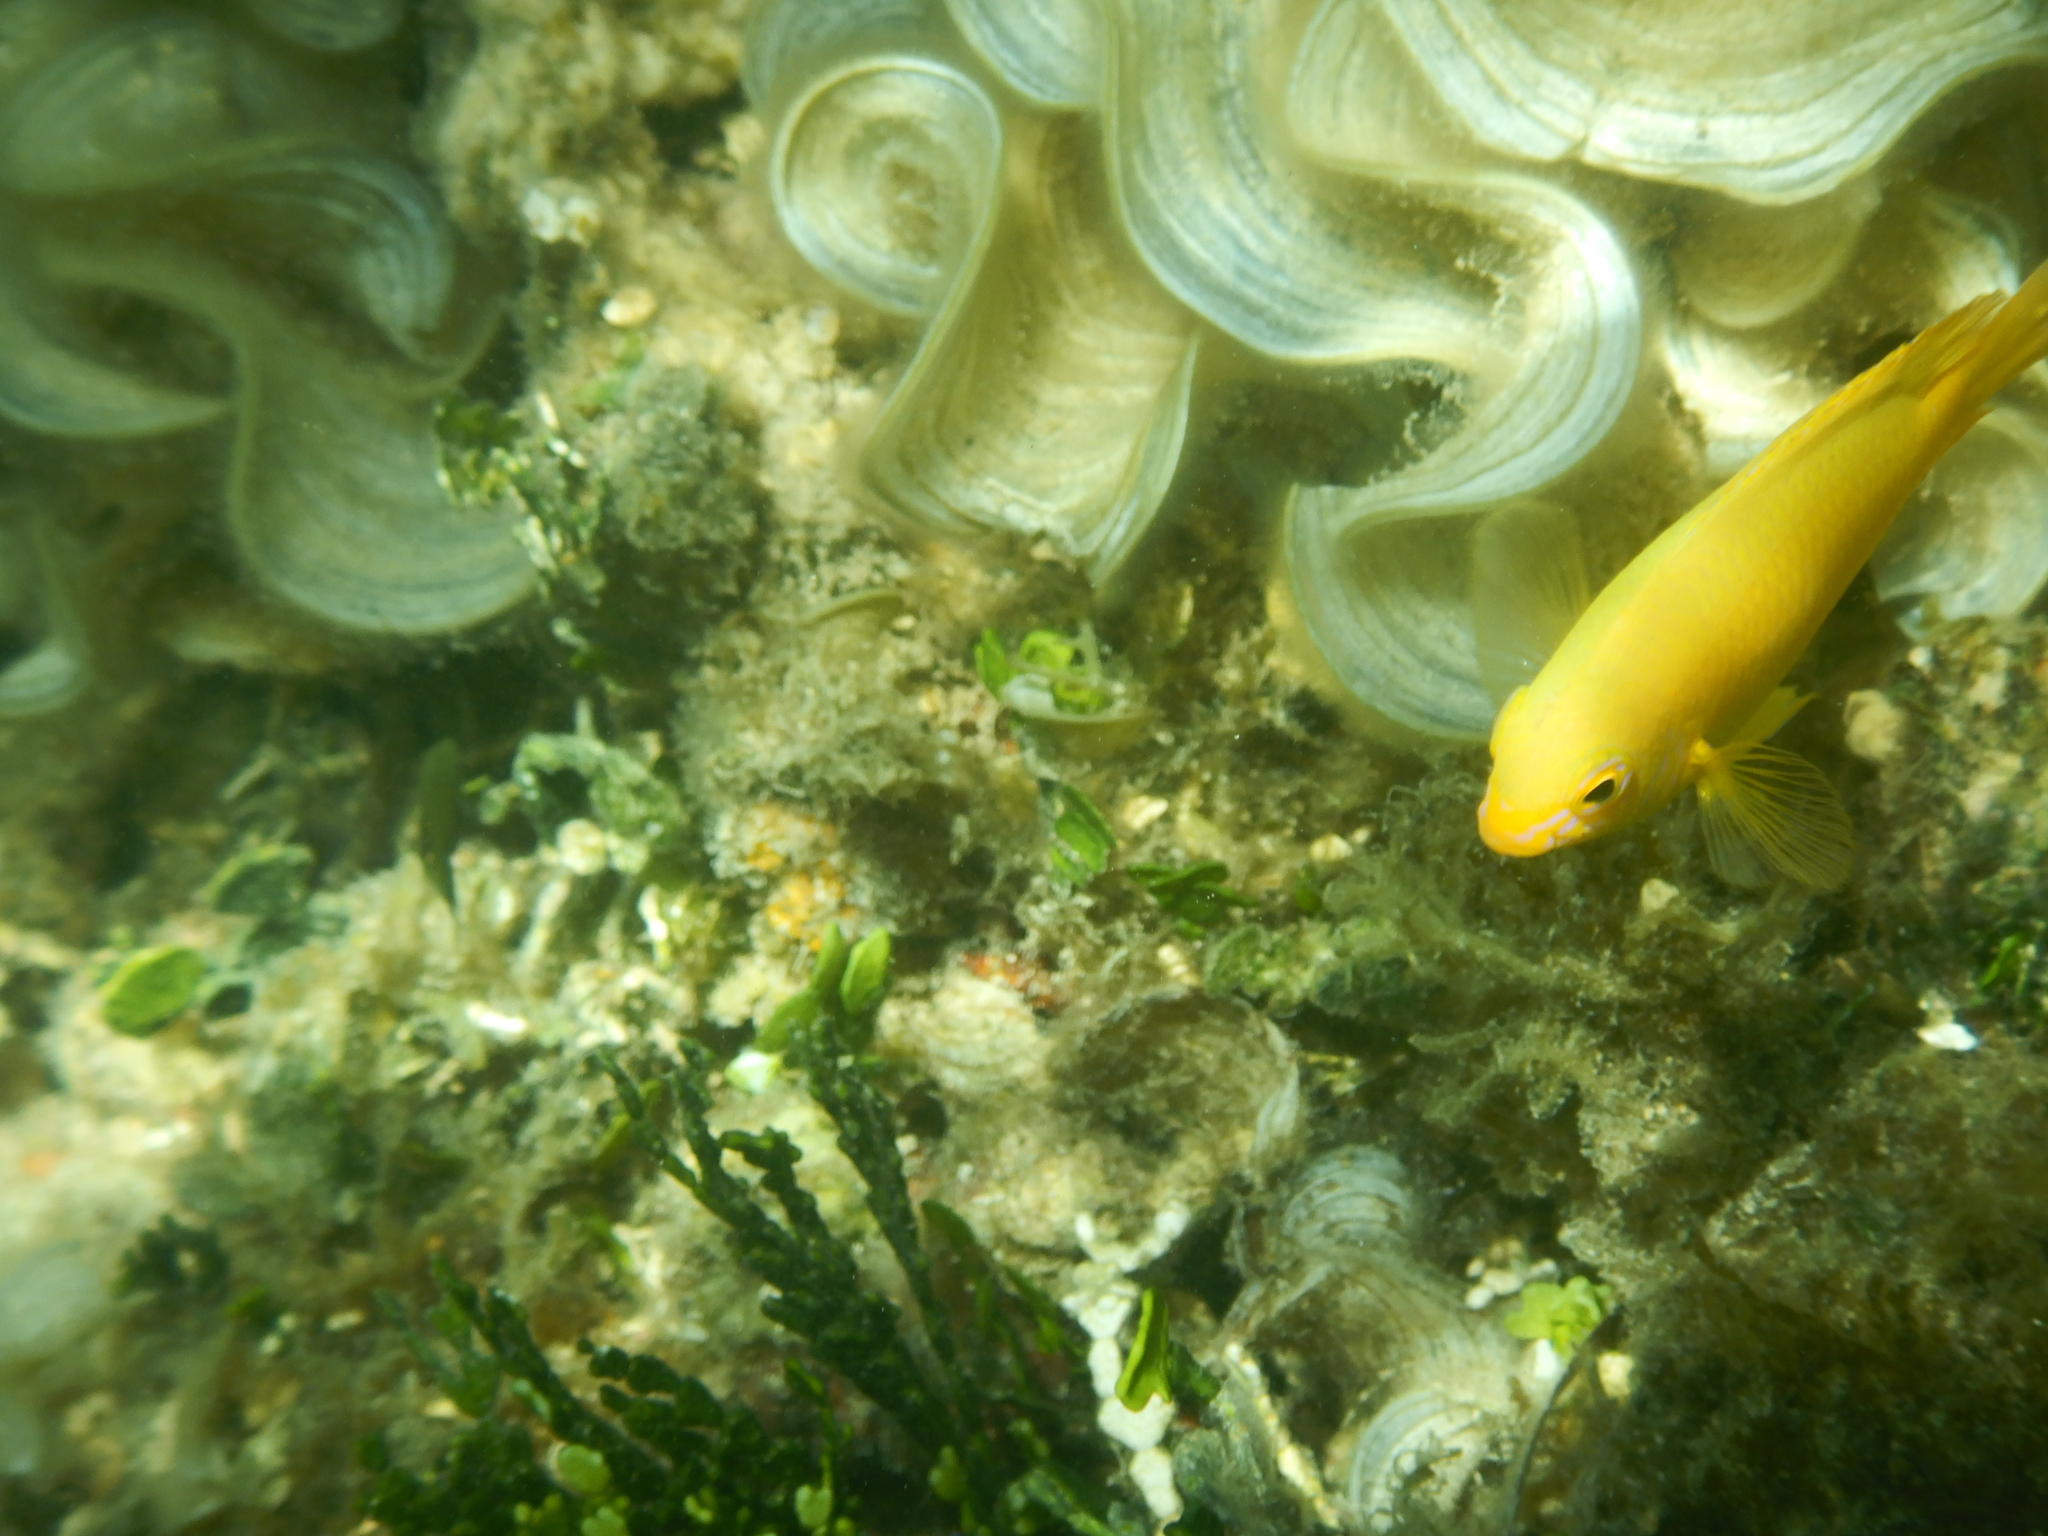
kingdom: Animalia
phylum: Chordata
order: Perciformes
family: Pomacentridae
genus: Pomacentrus
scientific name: Pomacentrus moluccensis
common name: Lemon damsel
